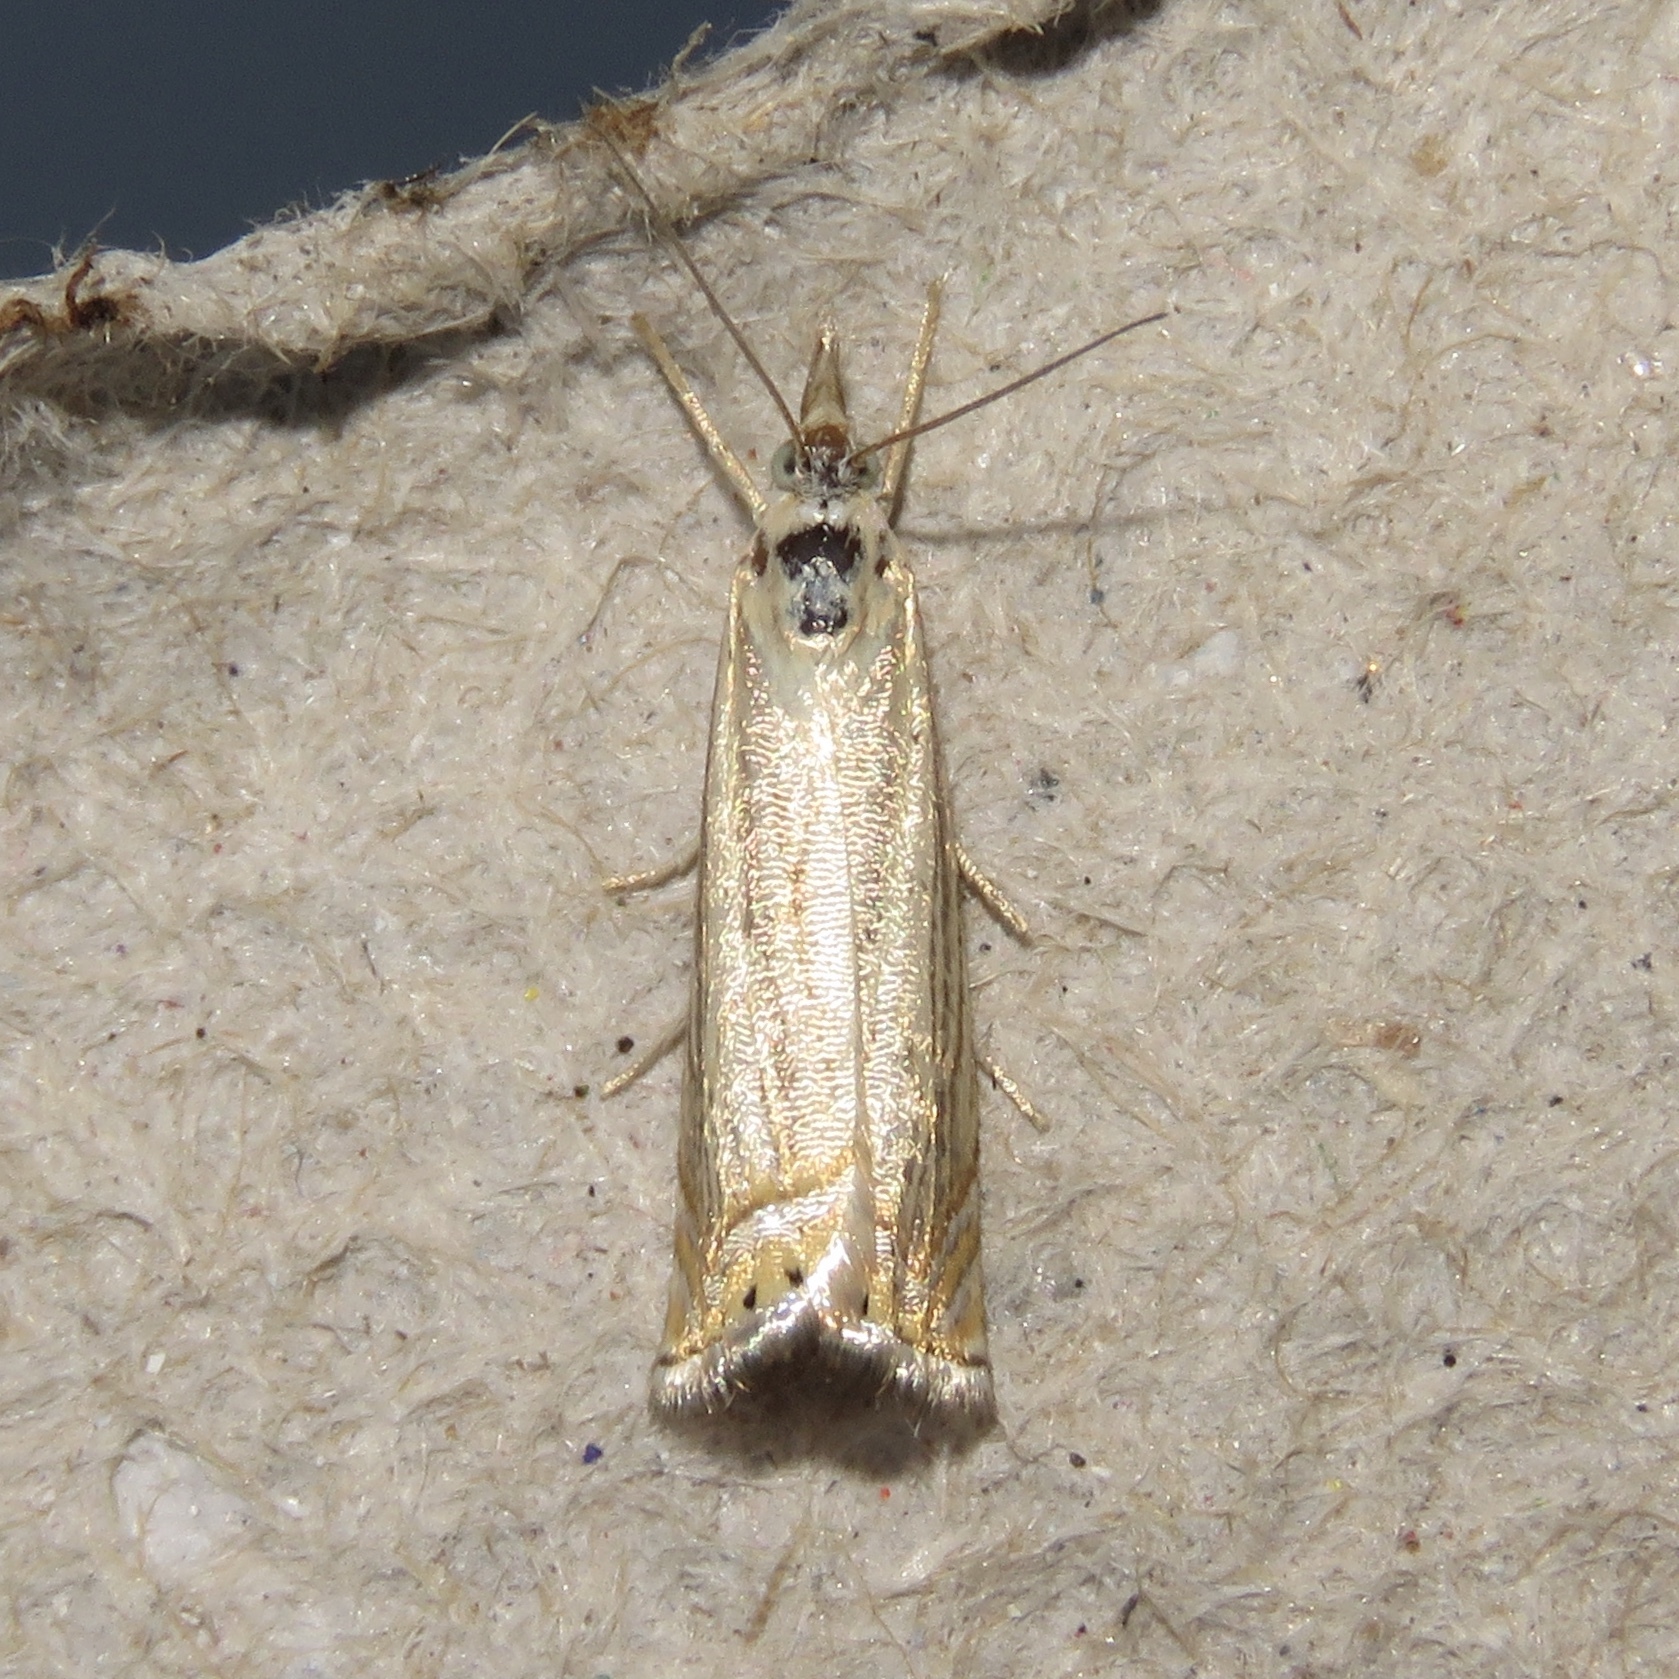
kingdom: Animalia
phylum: Arthropoda
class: Insecta
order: Lepidoptera
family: Crambidae
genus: Chrysoteuchia
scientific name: Chrysoteuchia topiarius
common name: Topiary grass-veneer
